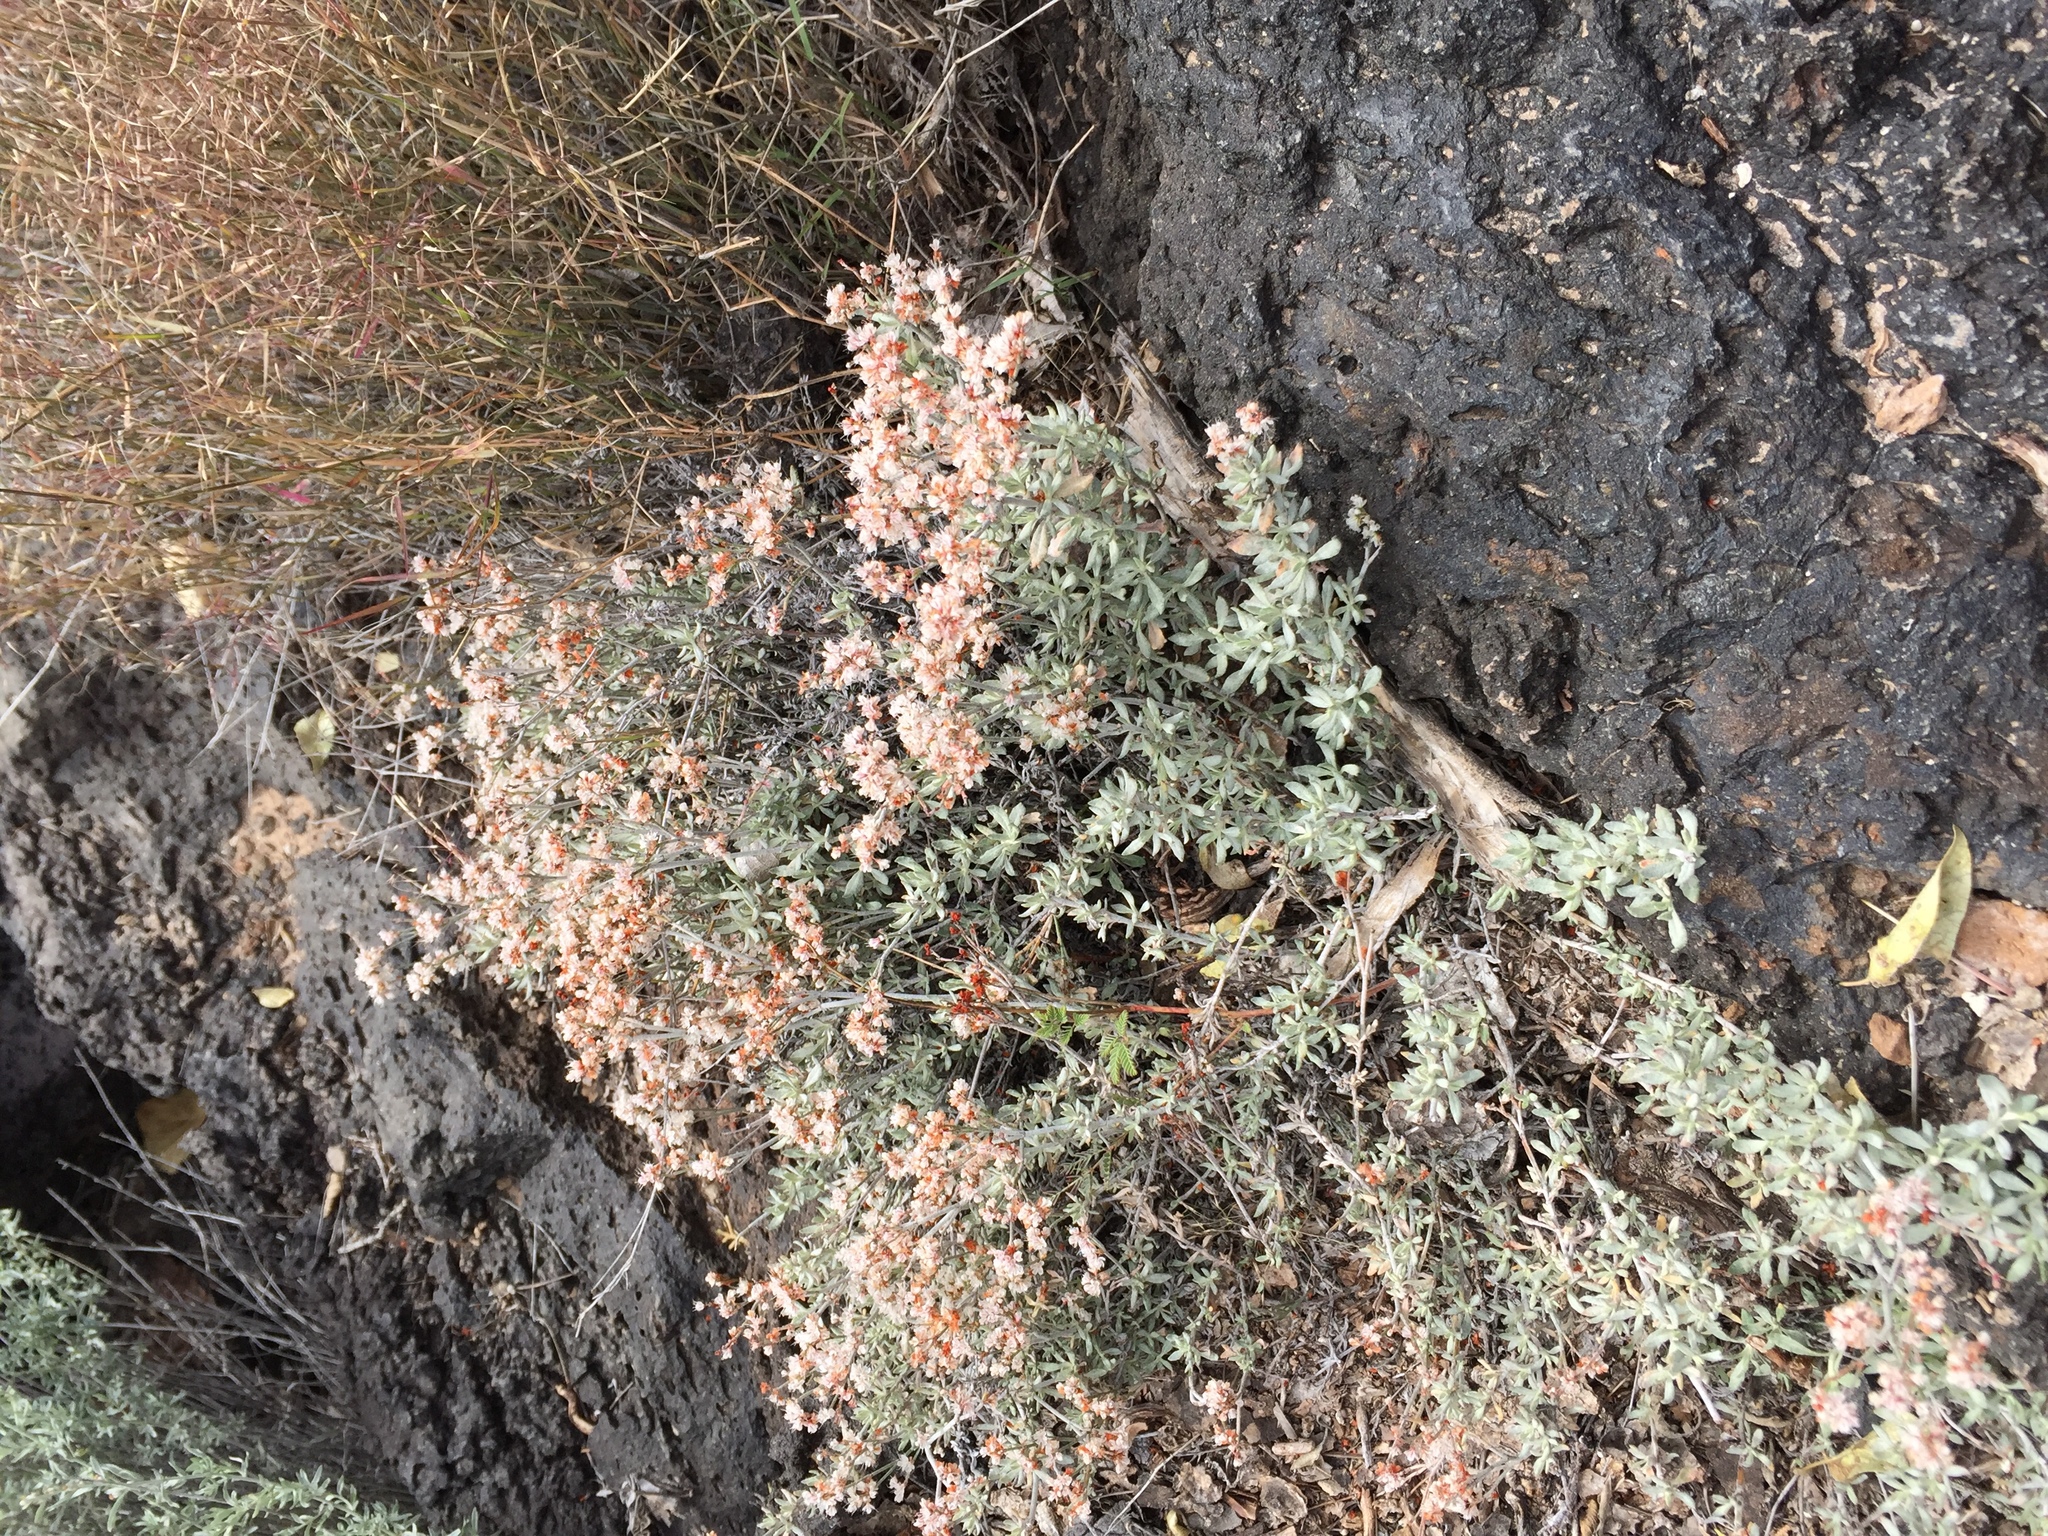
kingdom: Plantae
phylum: Tracheophyta
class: Magnoliopsida
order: Caryophyllales
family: Polygonaceae
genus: Eriogonum
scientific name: Eriogonum wrightii
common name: Bastard-sage
